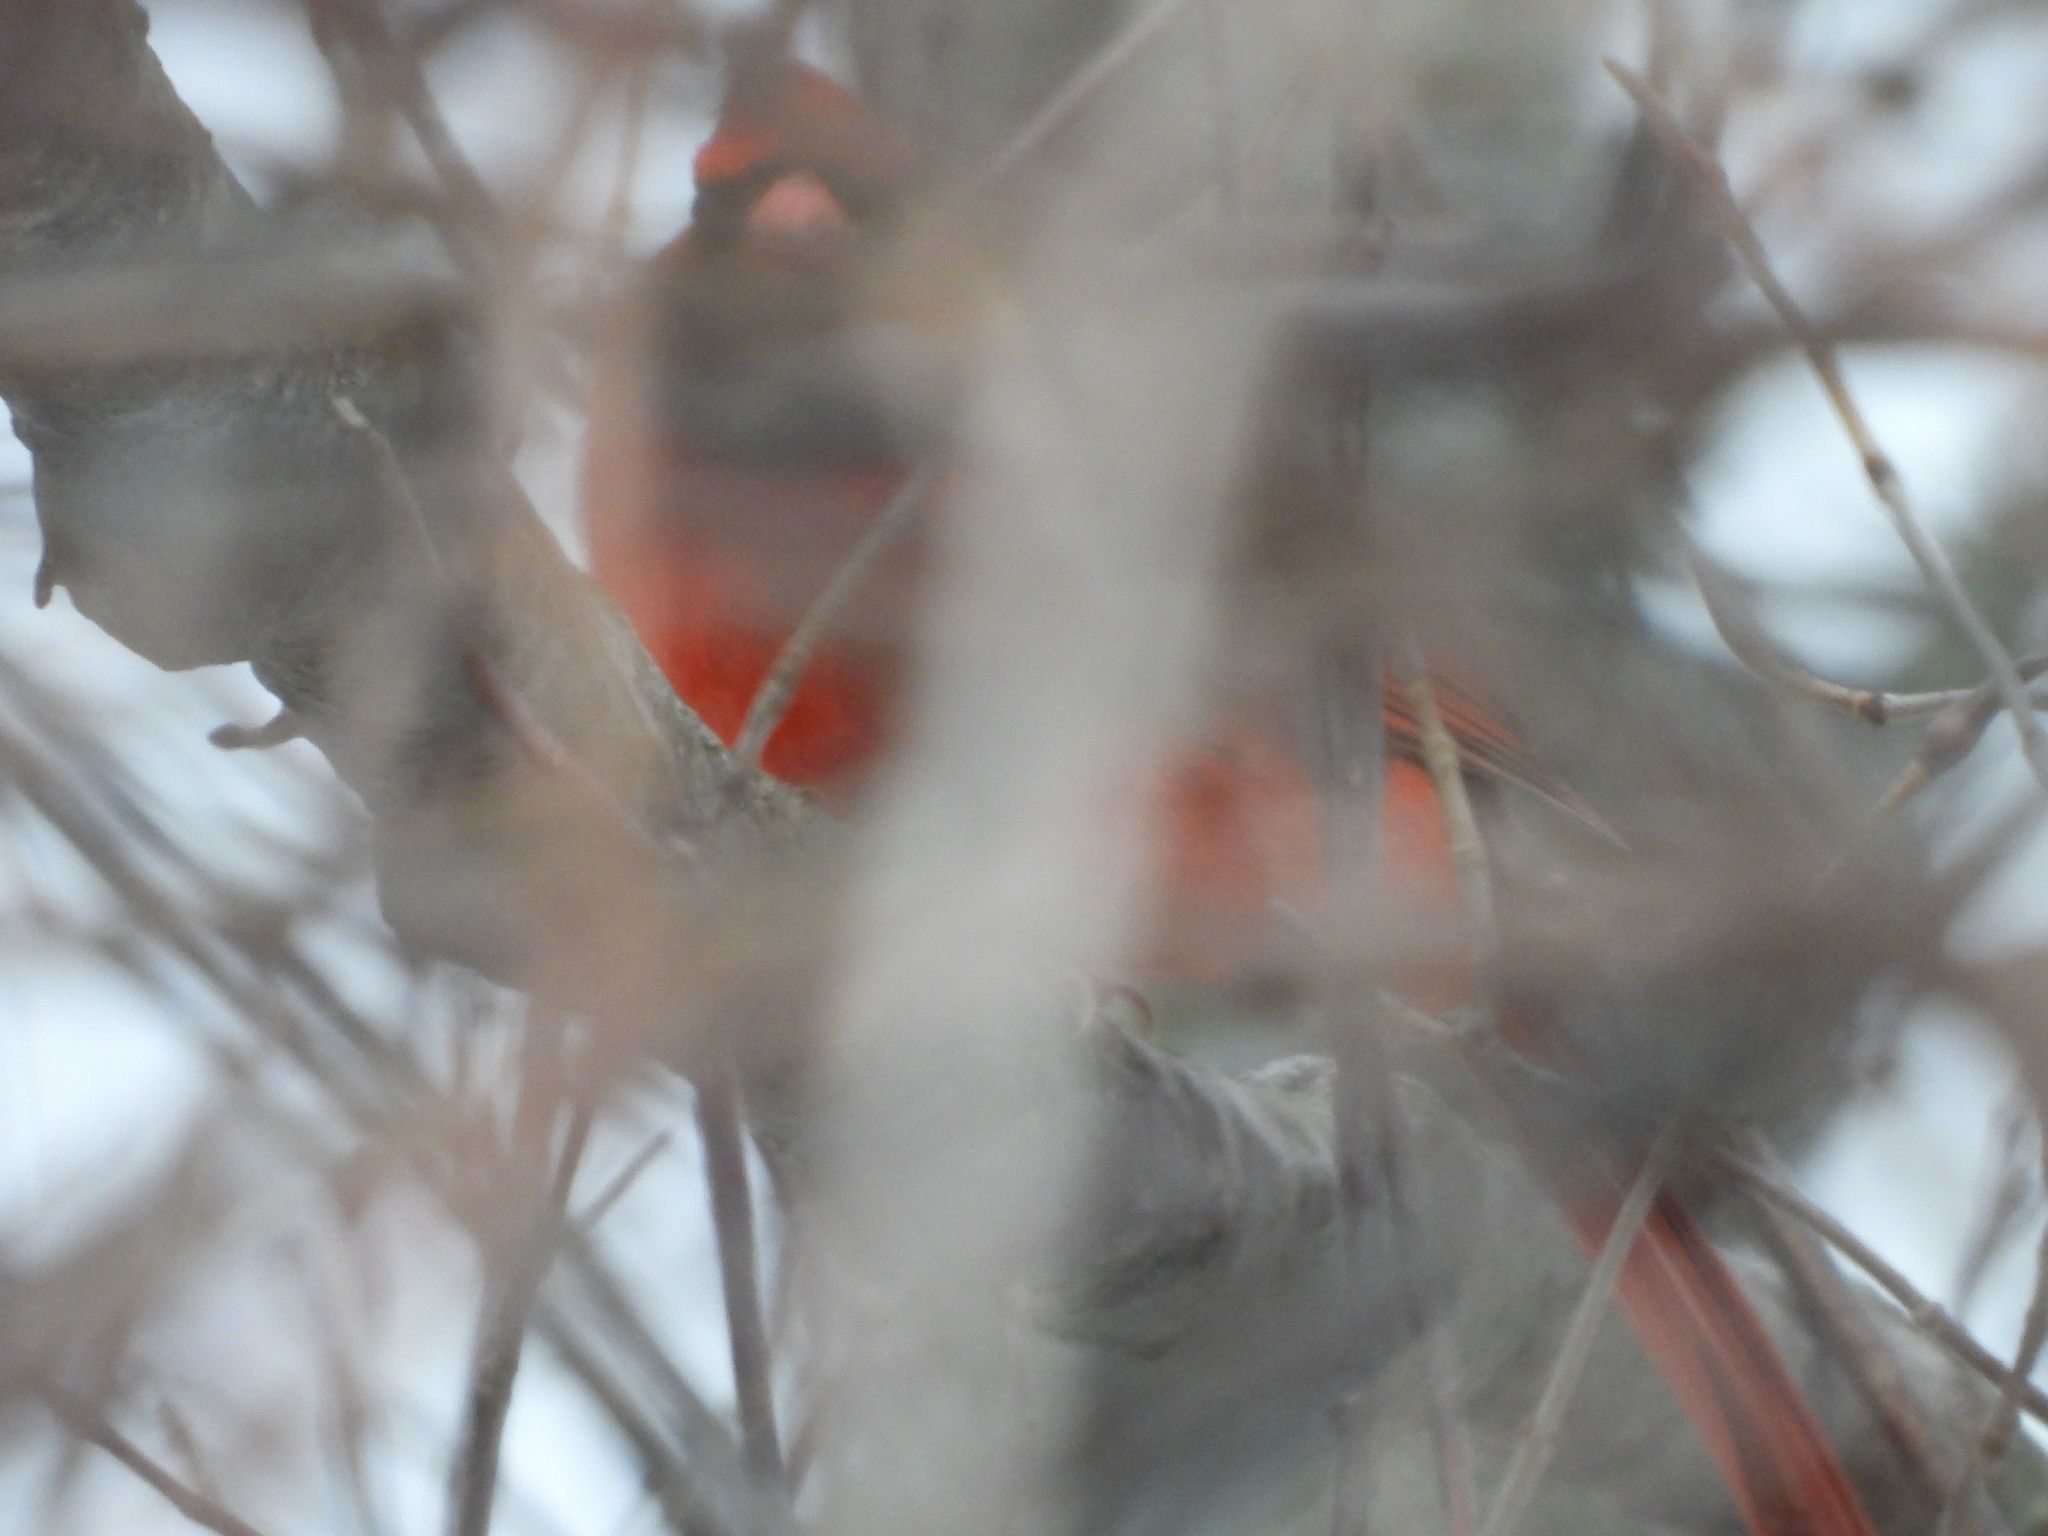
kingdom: Animalia
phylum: Chordata
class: Aves
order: Passeriformes
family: Cardinalidae
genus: Cardinalis
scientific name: Cardinalis cardinalis
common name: Northern cardinal
